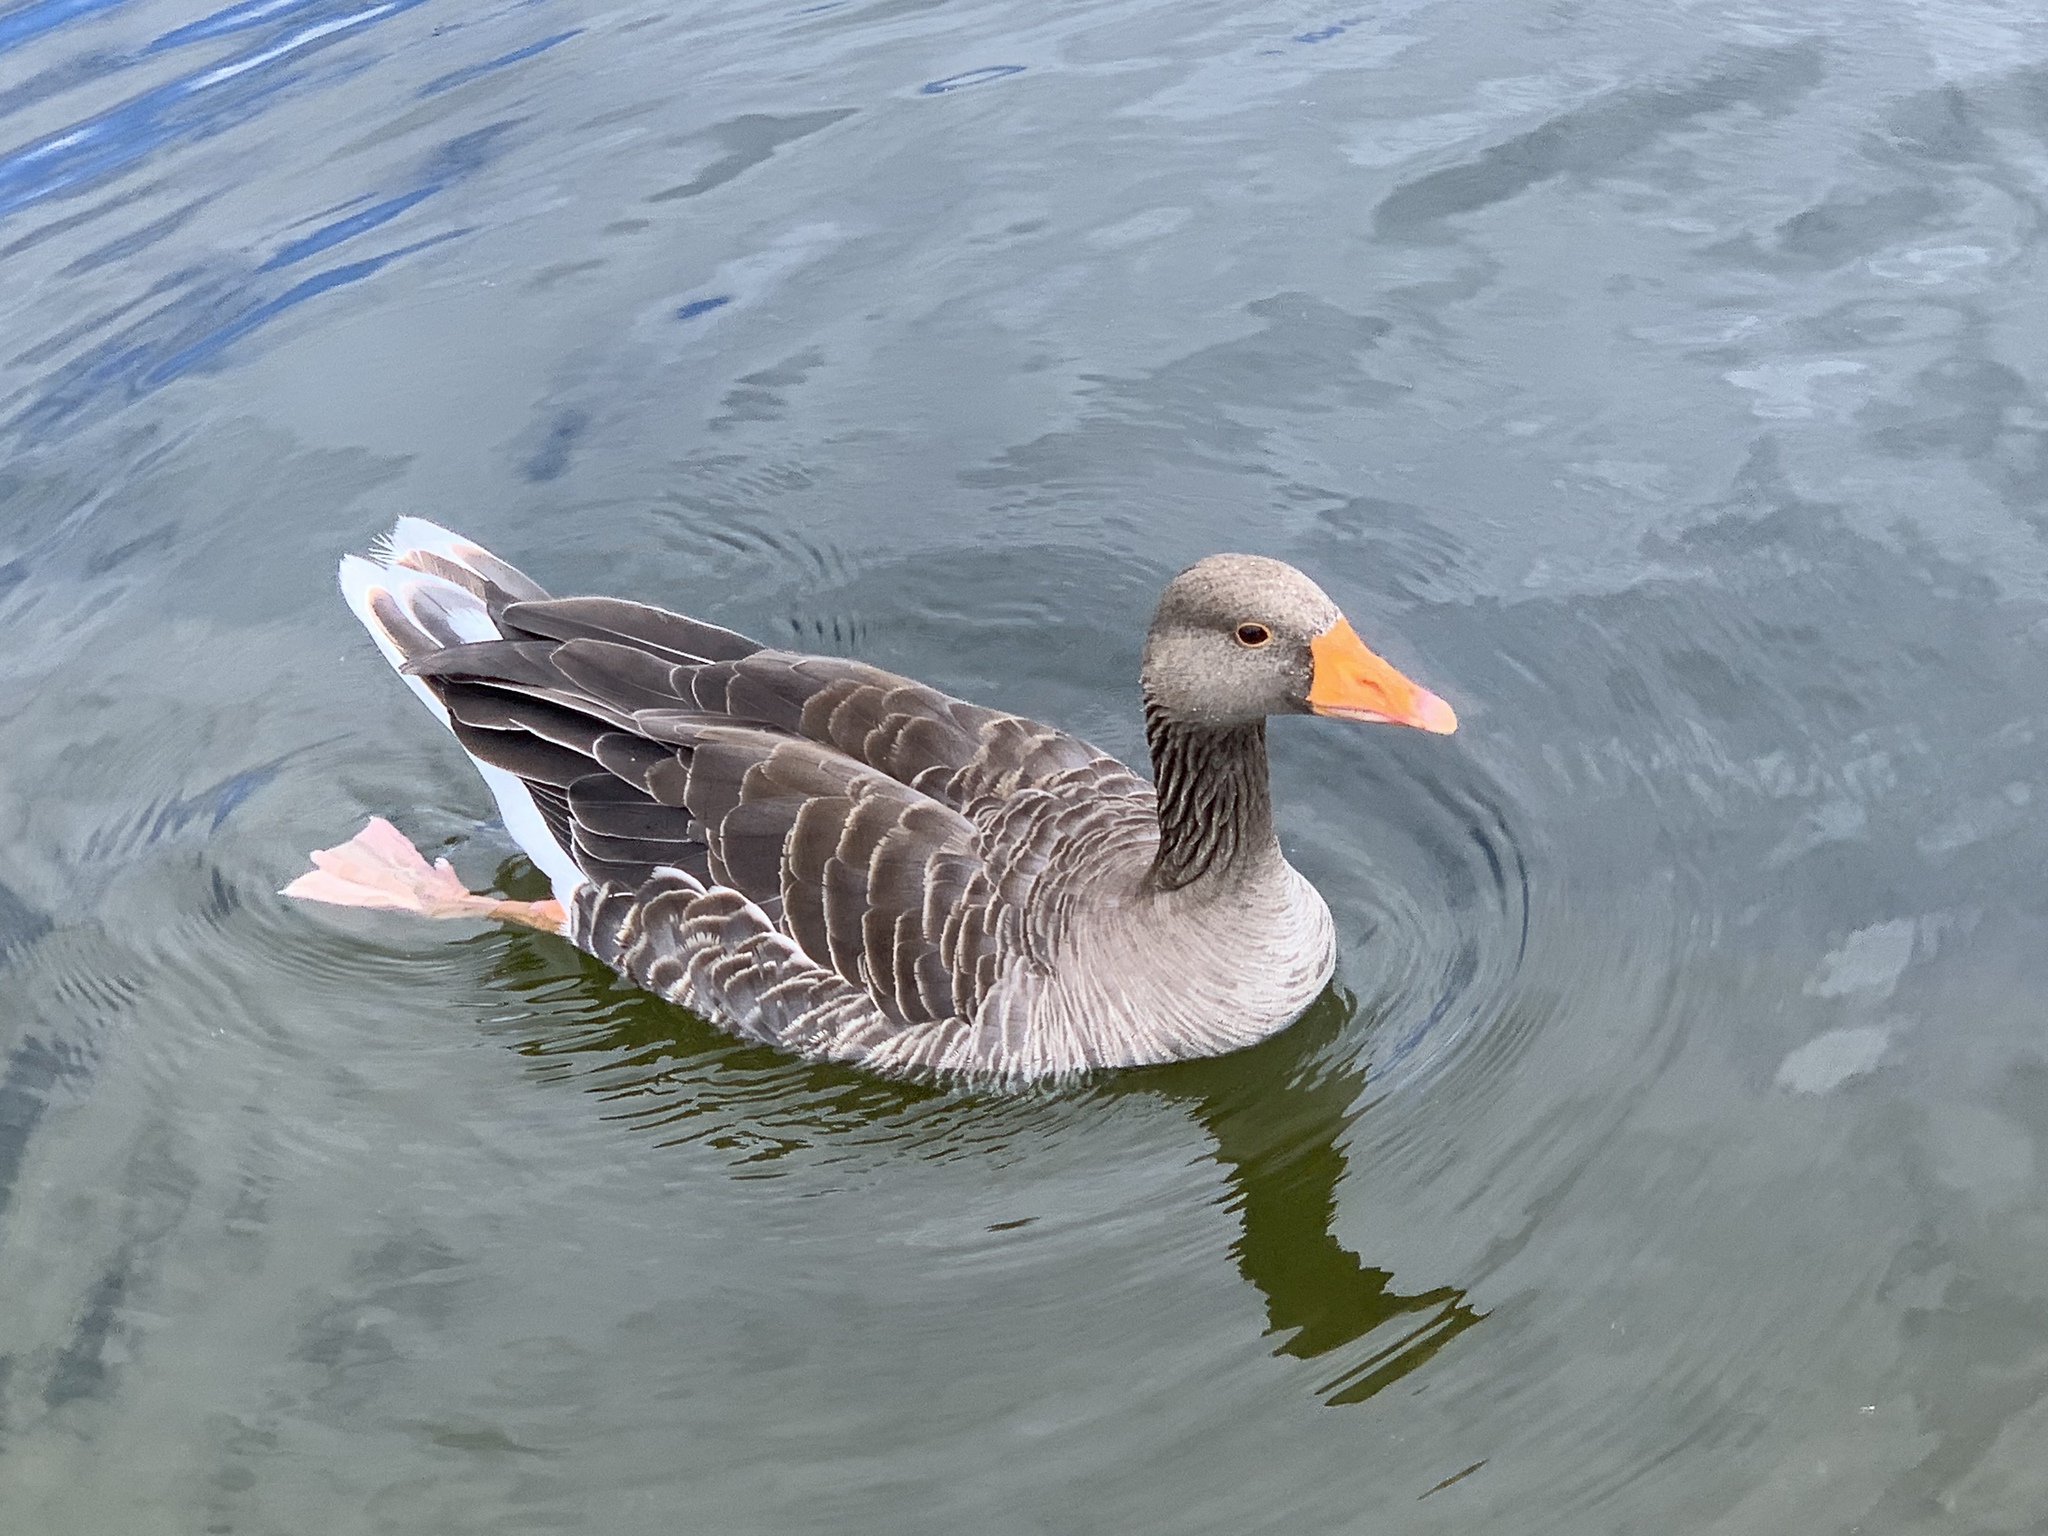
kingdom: Animalia
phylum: Chordata
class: Aves
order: Anseriformes
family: Anatidae
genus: Anser
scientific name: Anser anser
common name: Greylag goose
